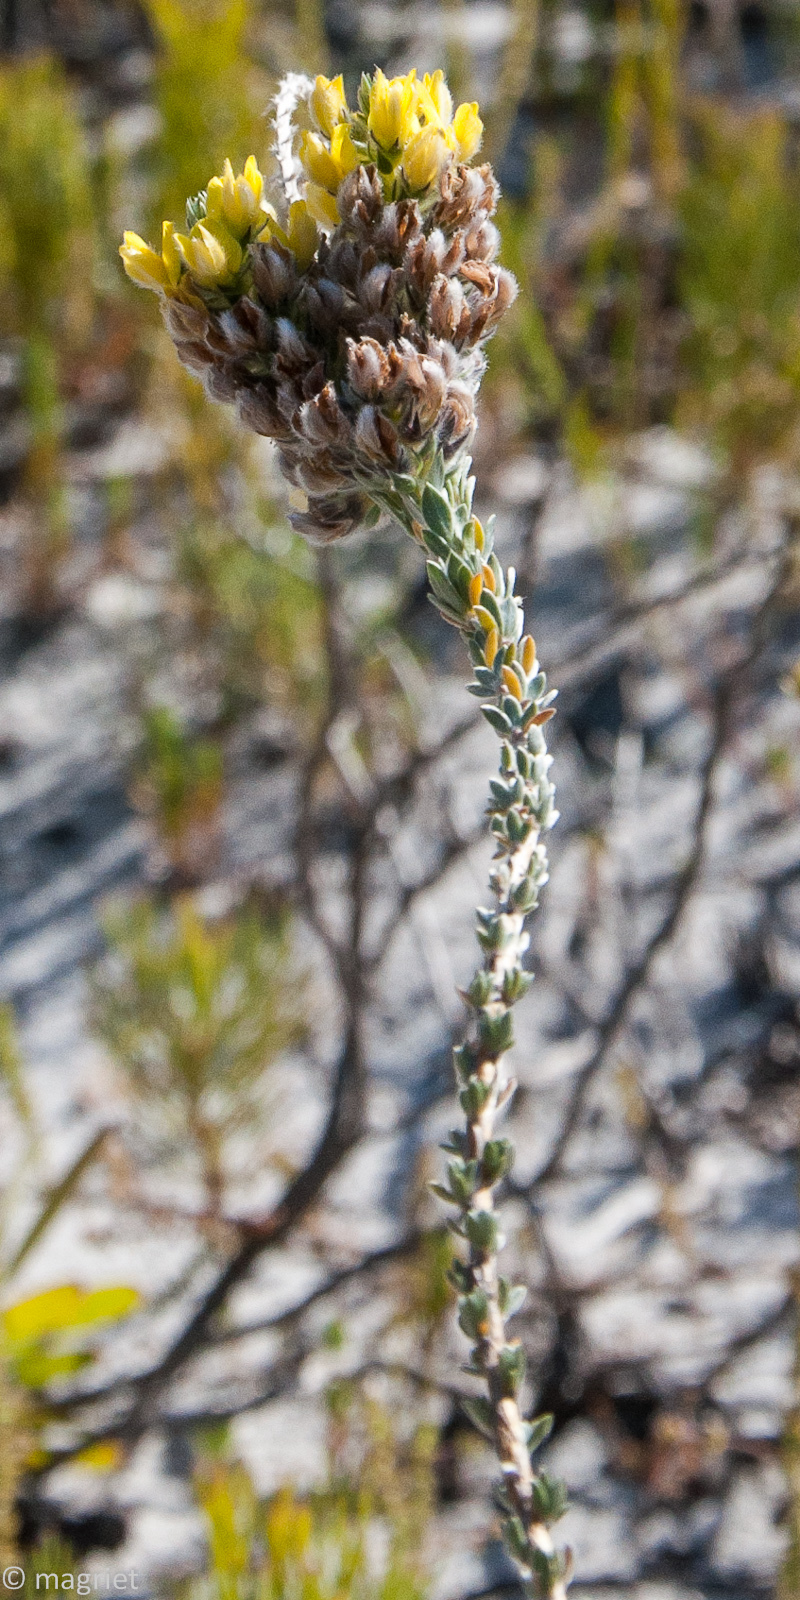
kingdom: Plantae
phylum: Tracheophyta
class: Magnoliopsida
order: Fabales
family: Fabaceae
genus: Aspalathus
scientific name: Aspalathus sericea
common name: Silky pea
